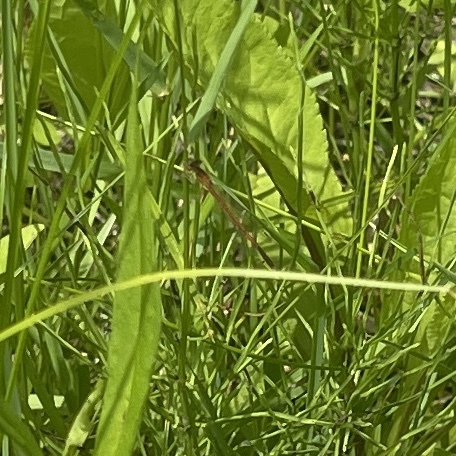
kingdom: Animalia
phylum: Arthropoda
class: Insecta
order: Odonata
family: Coenagrionidae
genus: Amphiagrion
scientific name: Amphiagrion saucium
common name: Eastern red damsel
